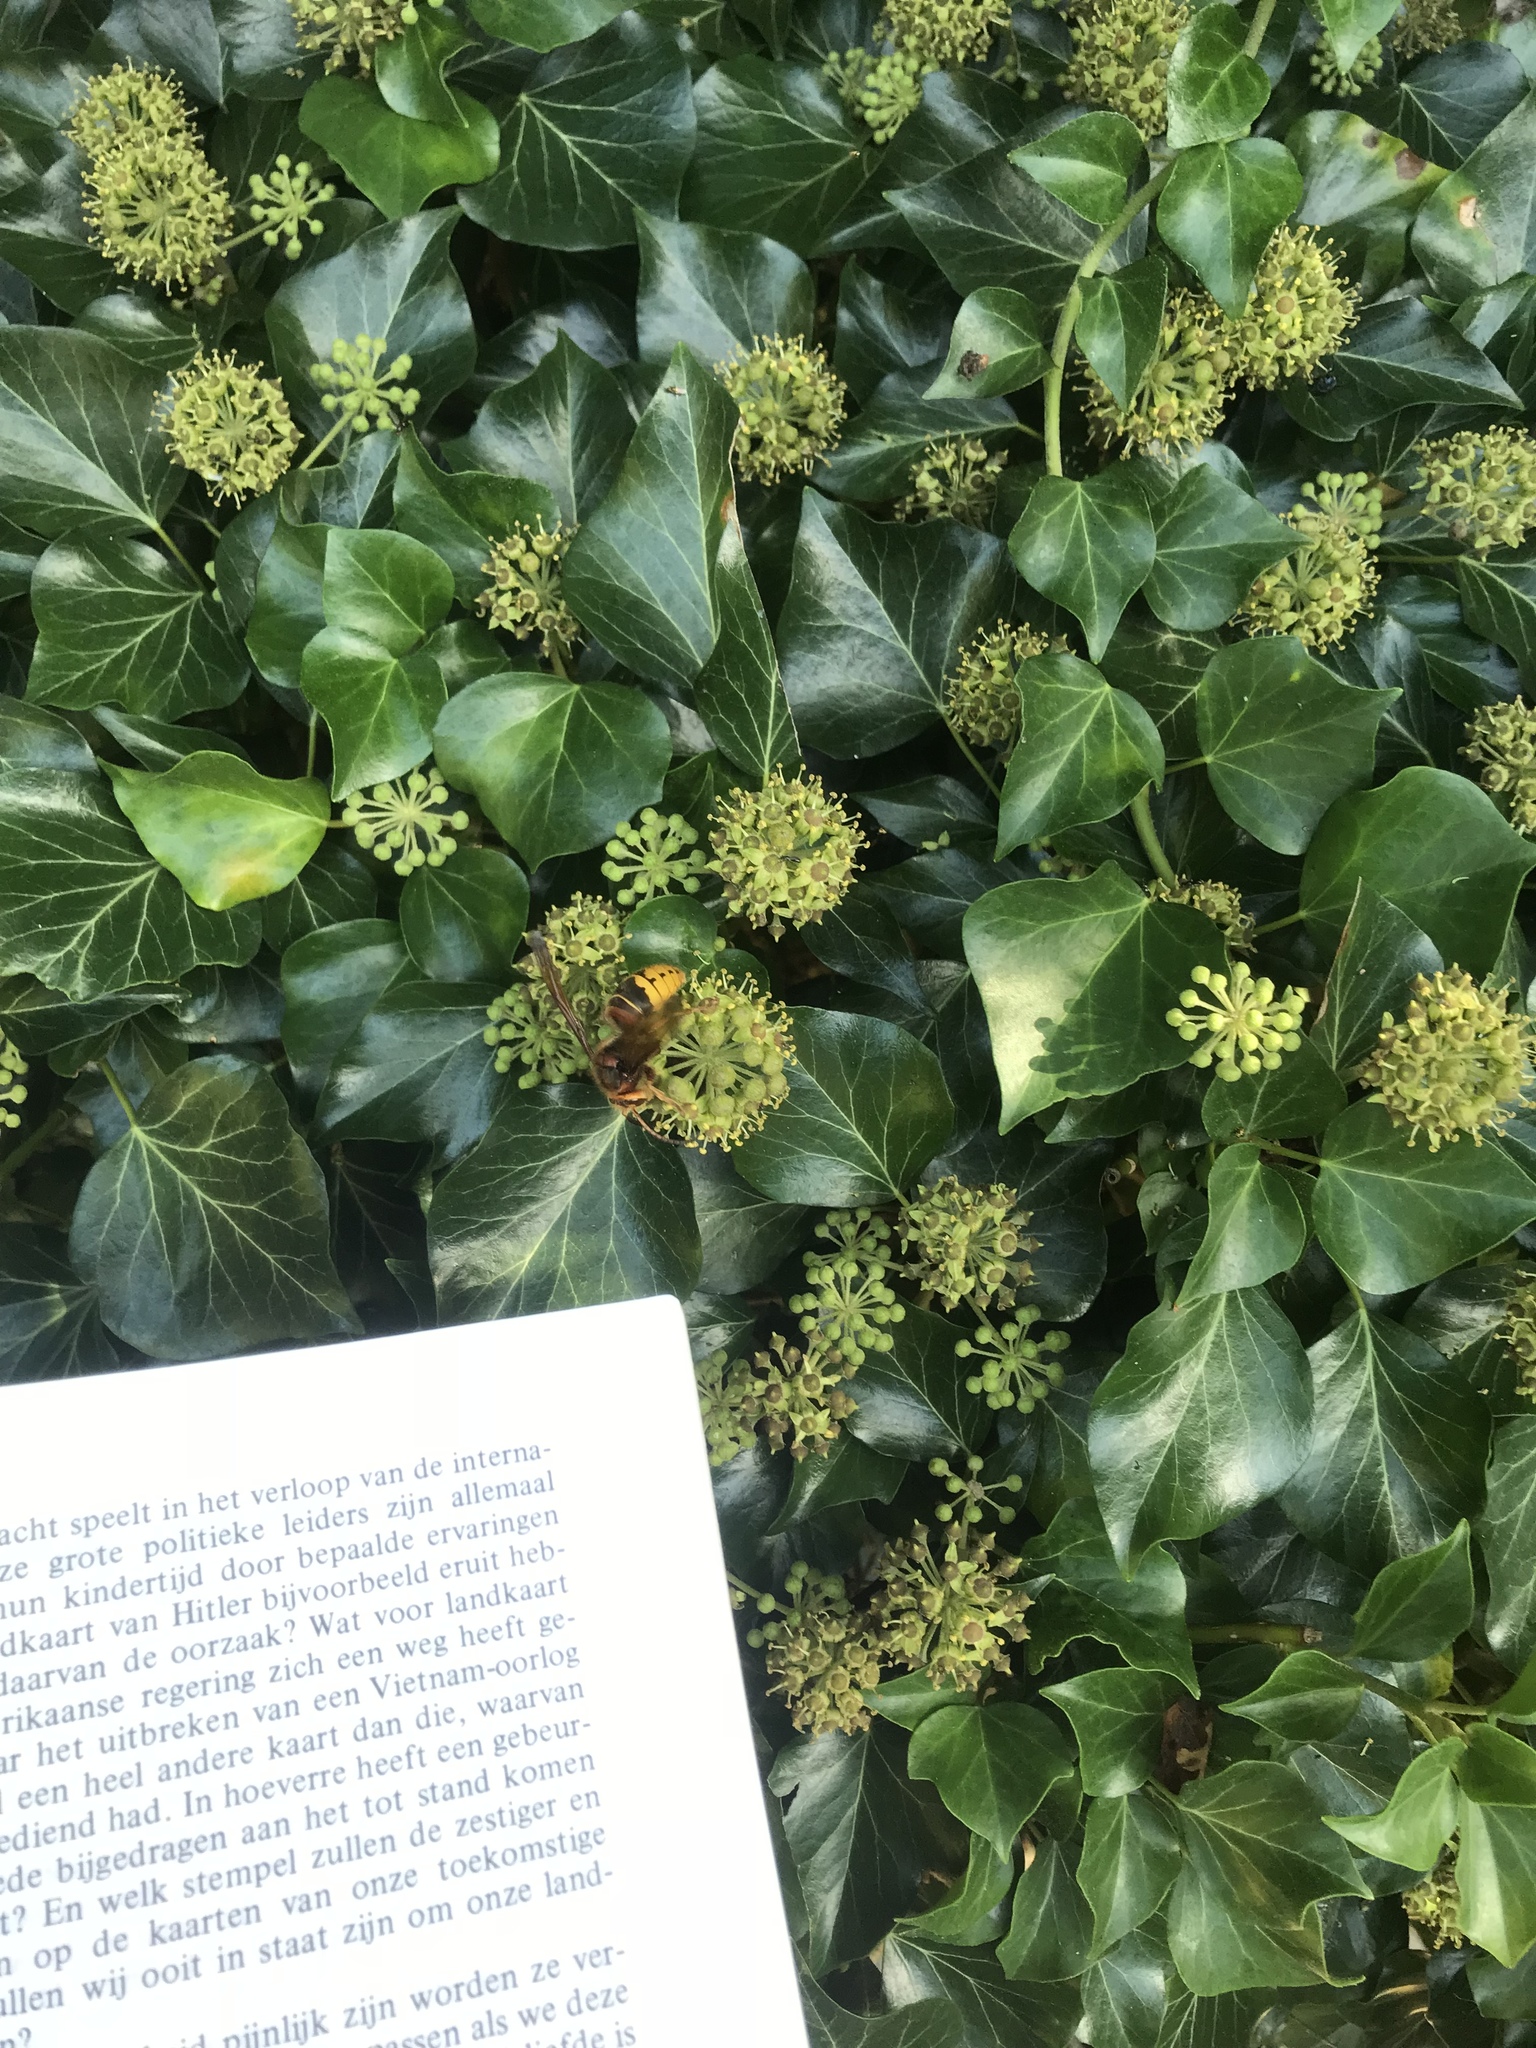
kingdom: Animalia
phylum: Arthropoda
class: Insecta
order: Hymenoptera
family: Vespidae
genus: Vespa
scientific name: Vespa crabro
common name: Hornet
